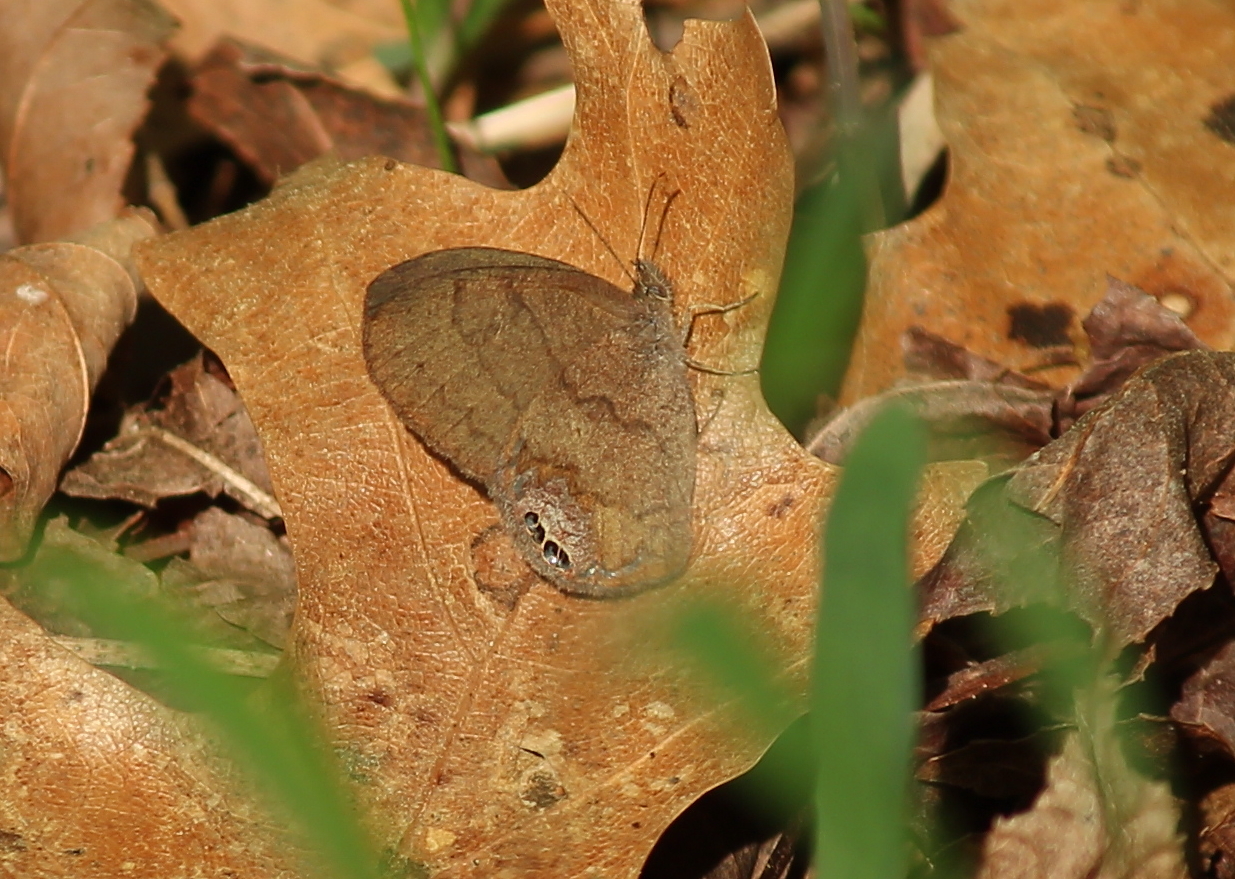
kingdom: Animalia
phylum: Arthropoda
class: Insecta
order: Lepidoptera
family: Nymphalidae
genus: Euptychia
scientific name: Euptychia cornelius
